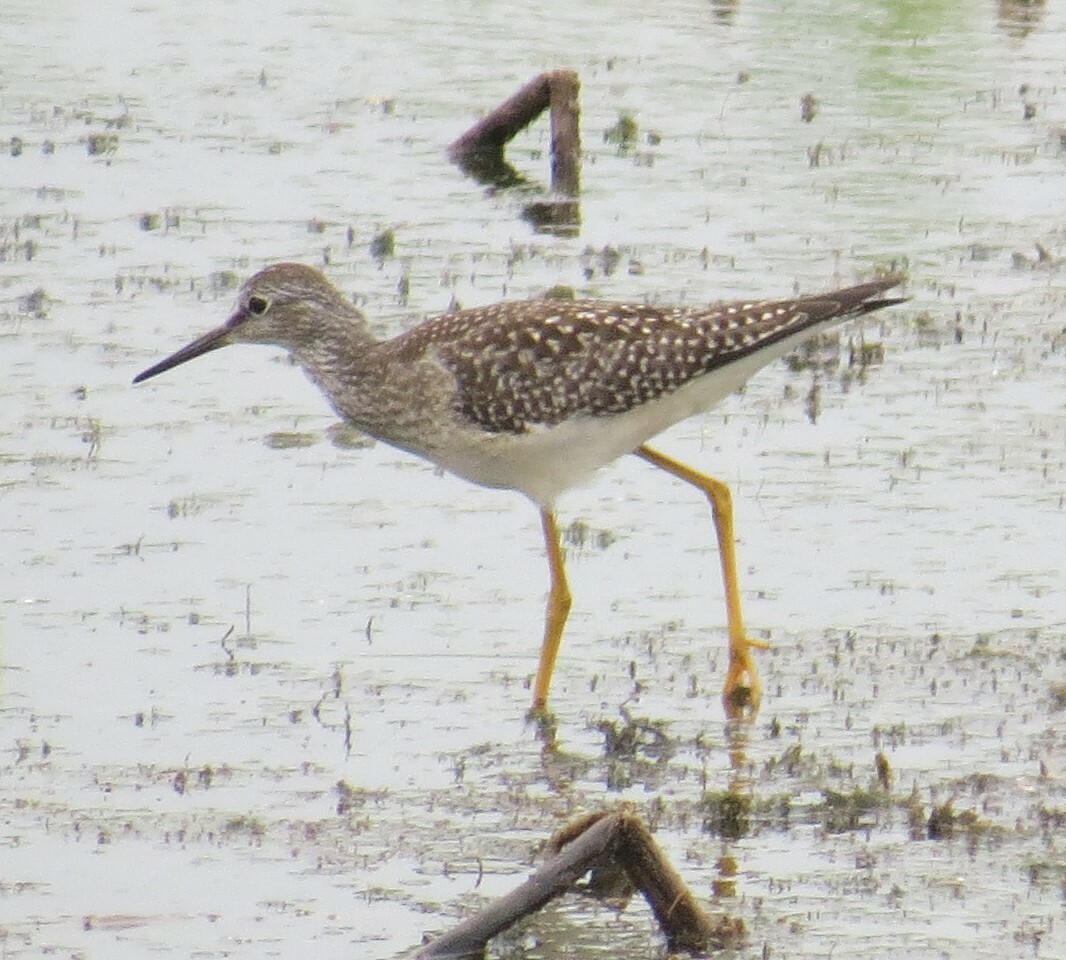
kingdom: Animalia
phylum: Chordata
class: Aves
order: Charadriiformes
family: Scolopacidae
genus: Tringa
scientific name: Tringa flavipes
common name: Lesser yellowlegs
